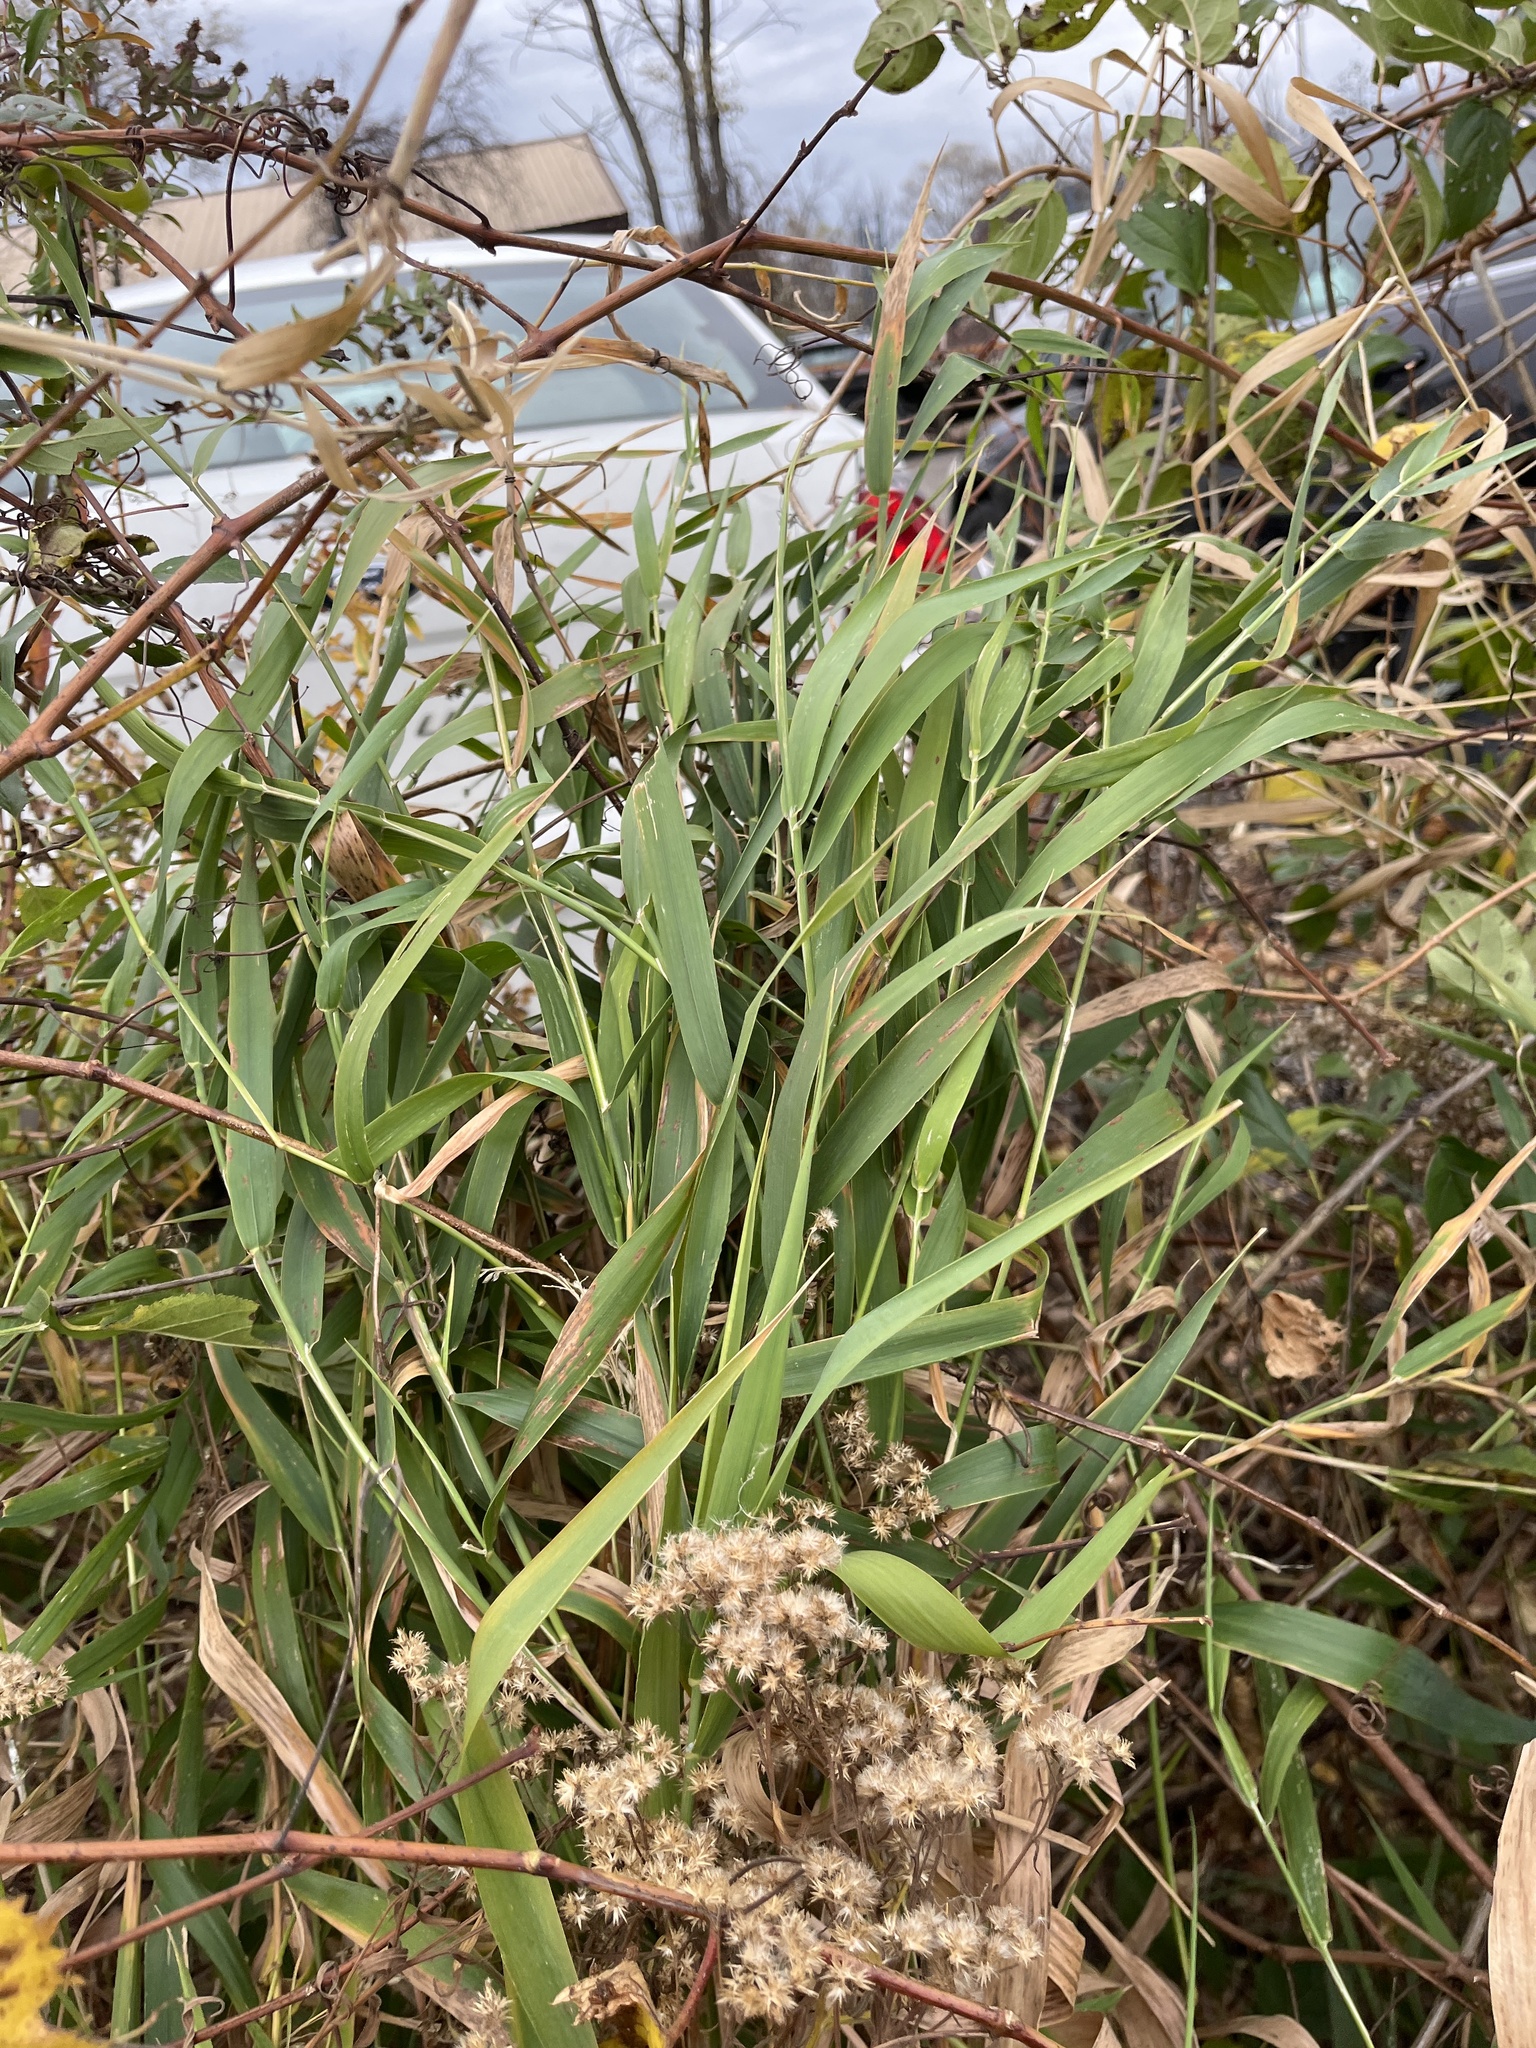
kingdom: Plantae
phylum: Tracheophyta
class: Liliopsida
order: Poales
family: Poaceae
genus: Phragmites
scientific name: Phragmites australis
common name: Common reed
